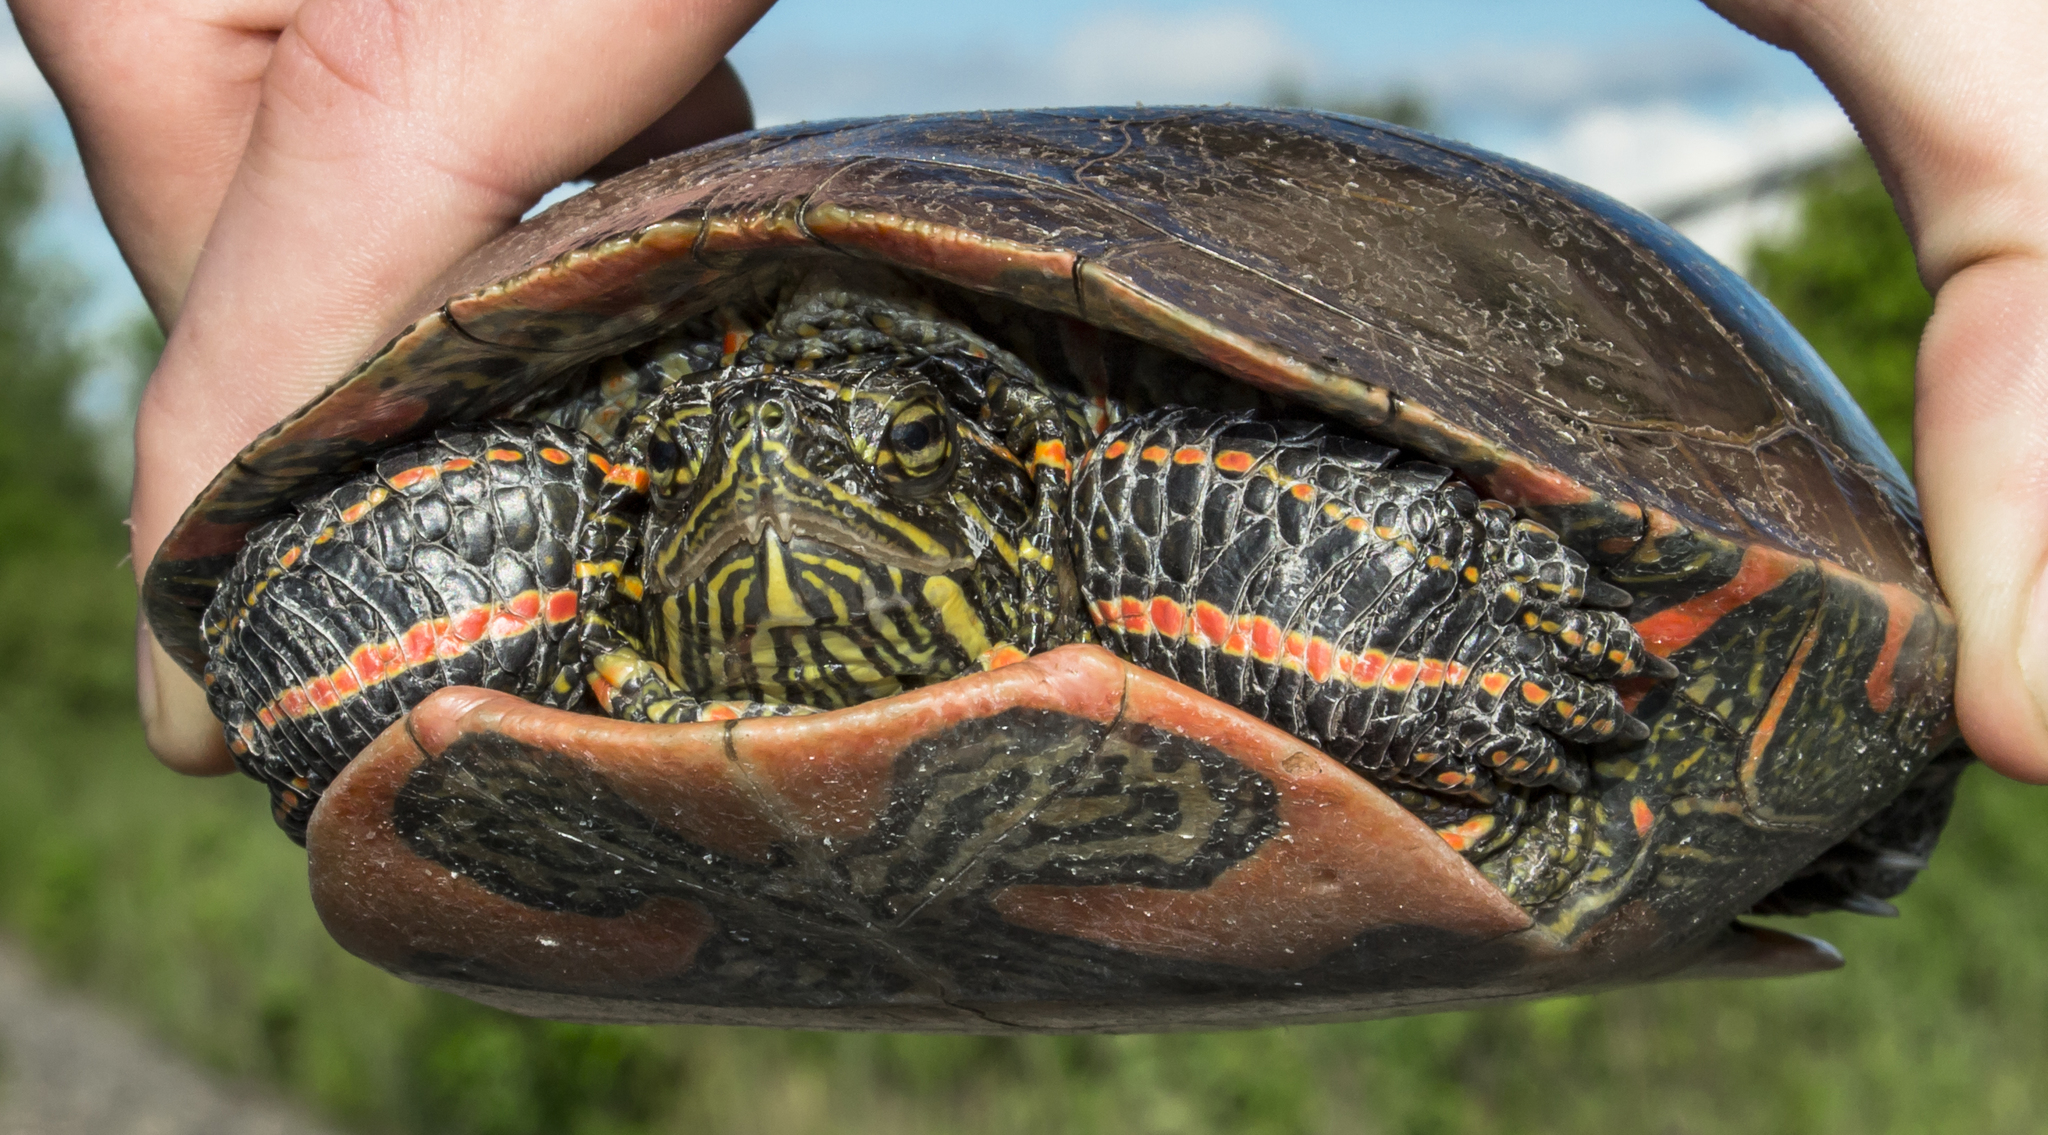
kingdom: Animalia
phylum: Chordata
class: Testudines
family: Emydidae
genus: Chrysemys
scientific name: Chrysemys picta
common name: Painted turtle
